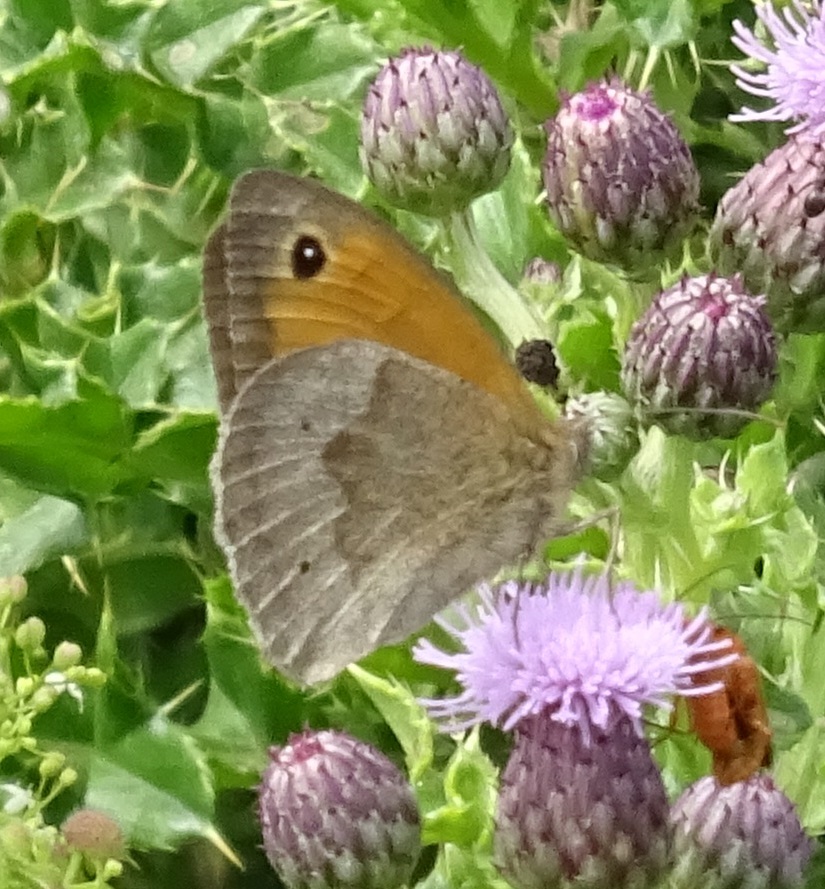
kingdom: Animalia
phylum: Arthropoda
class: Insecta
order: Lepidoptera
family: Nymphalidae
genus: Maniola
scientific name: Maniola jurtina
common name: Meadow brown
